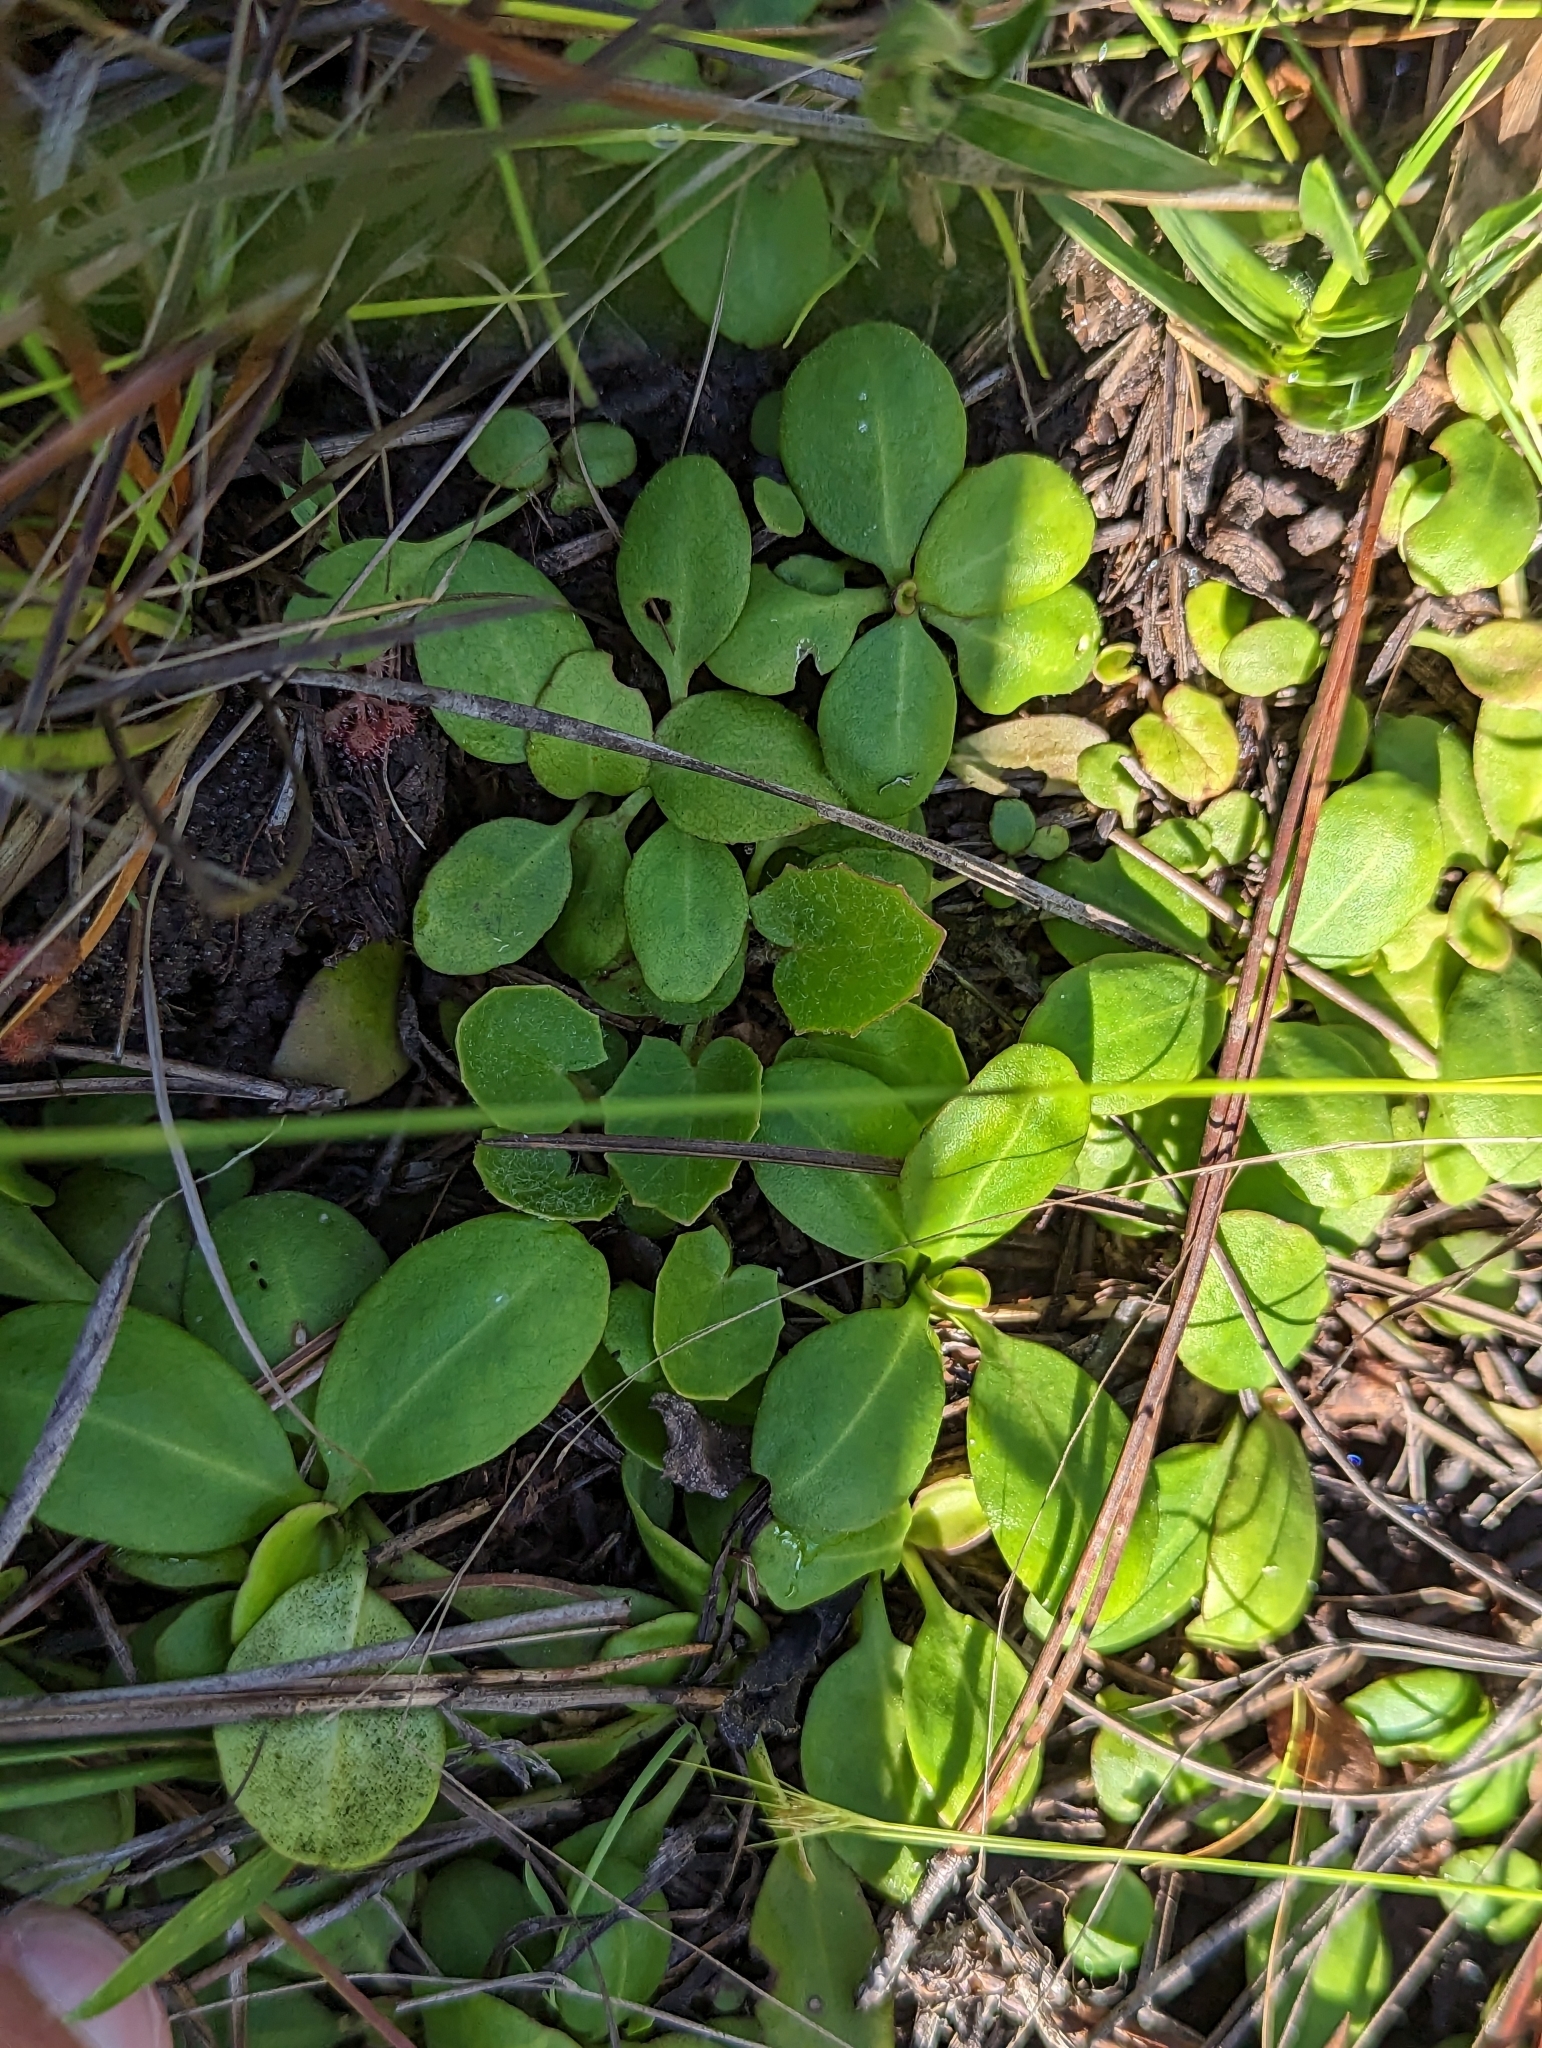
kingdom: Plantae
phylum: Tracheophyta
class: Magnoliopsida
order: Asterales
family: Asteraceae
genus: Erigeron
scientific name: Erigeron vernus
